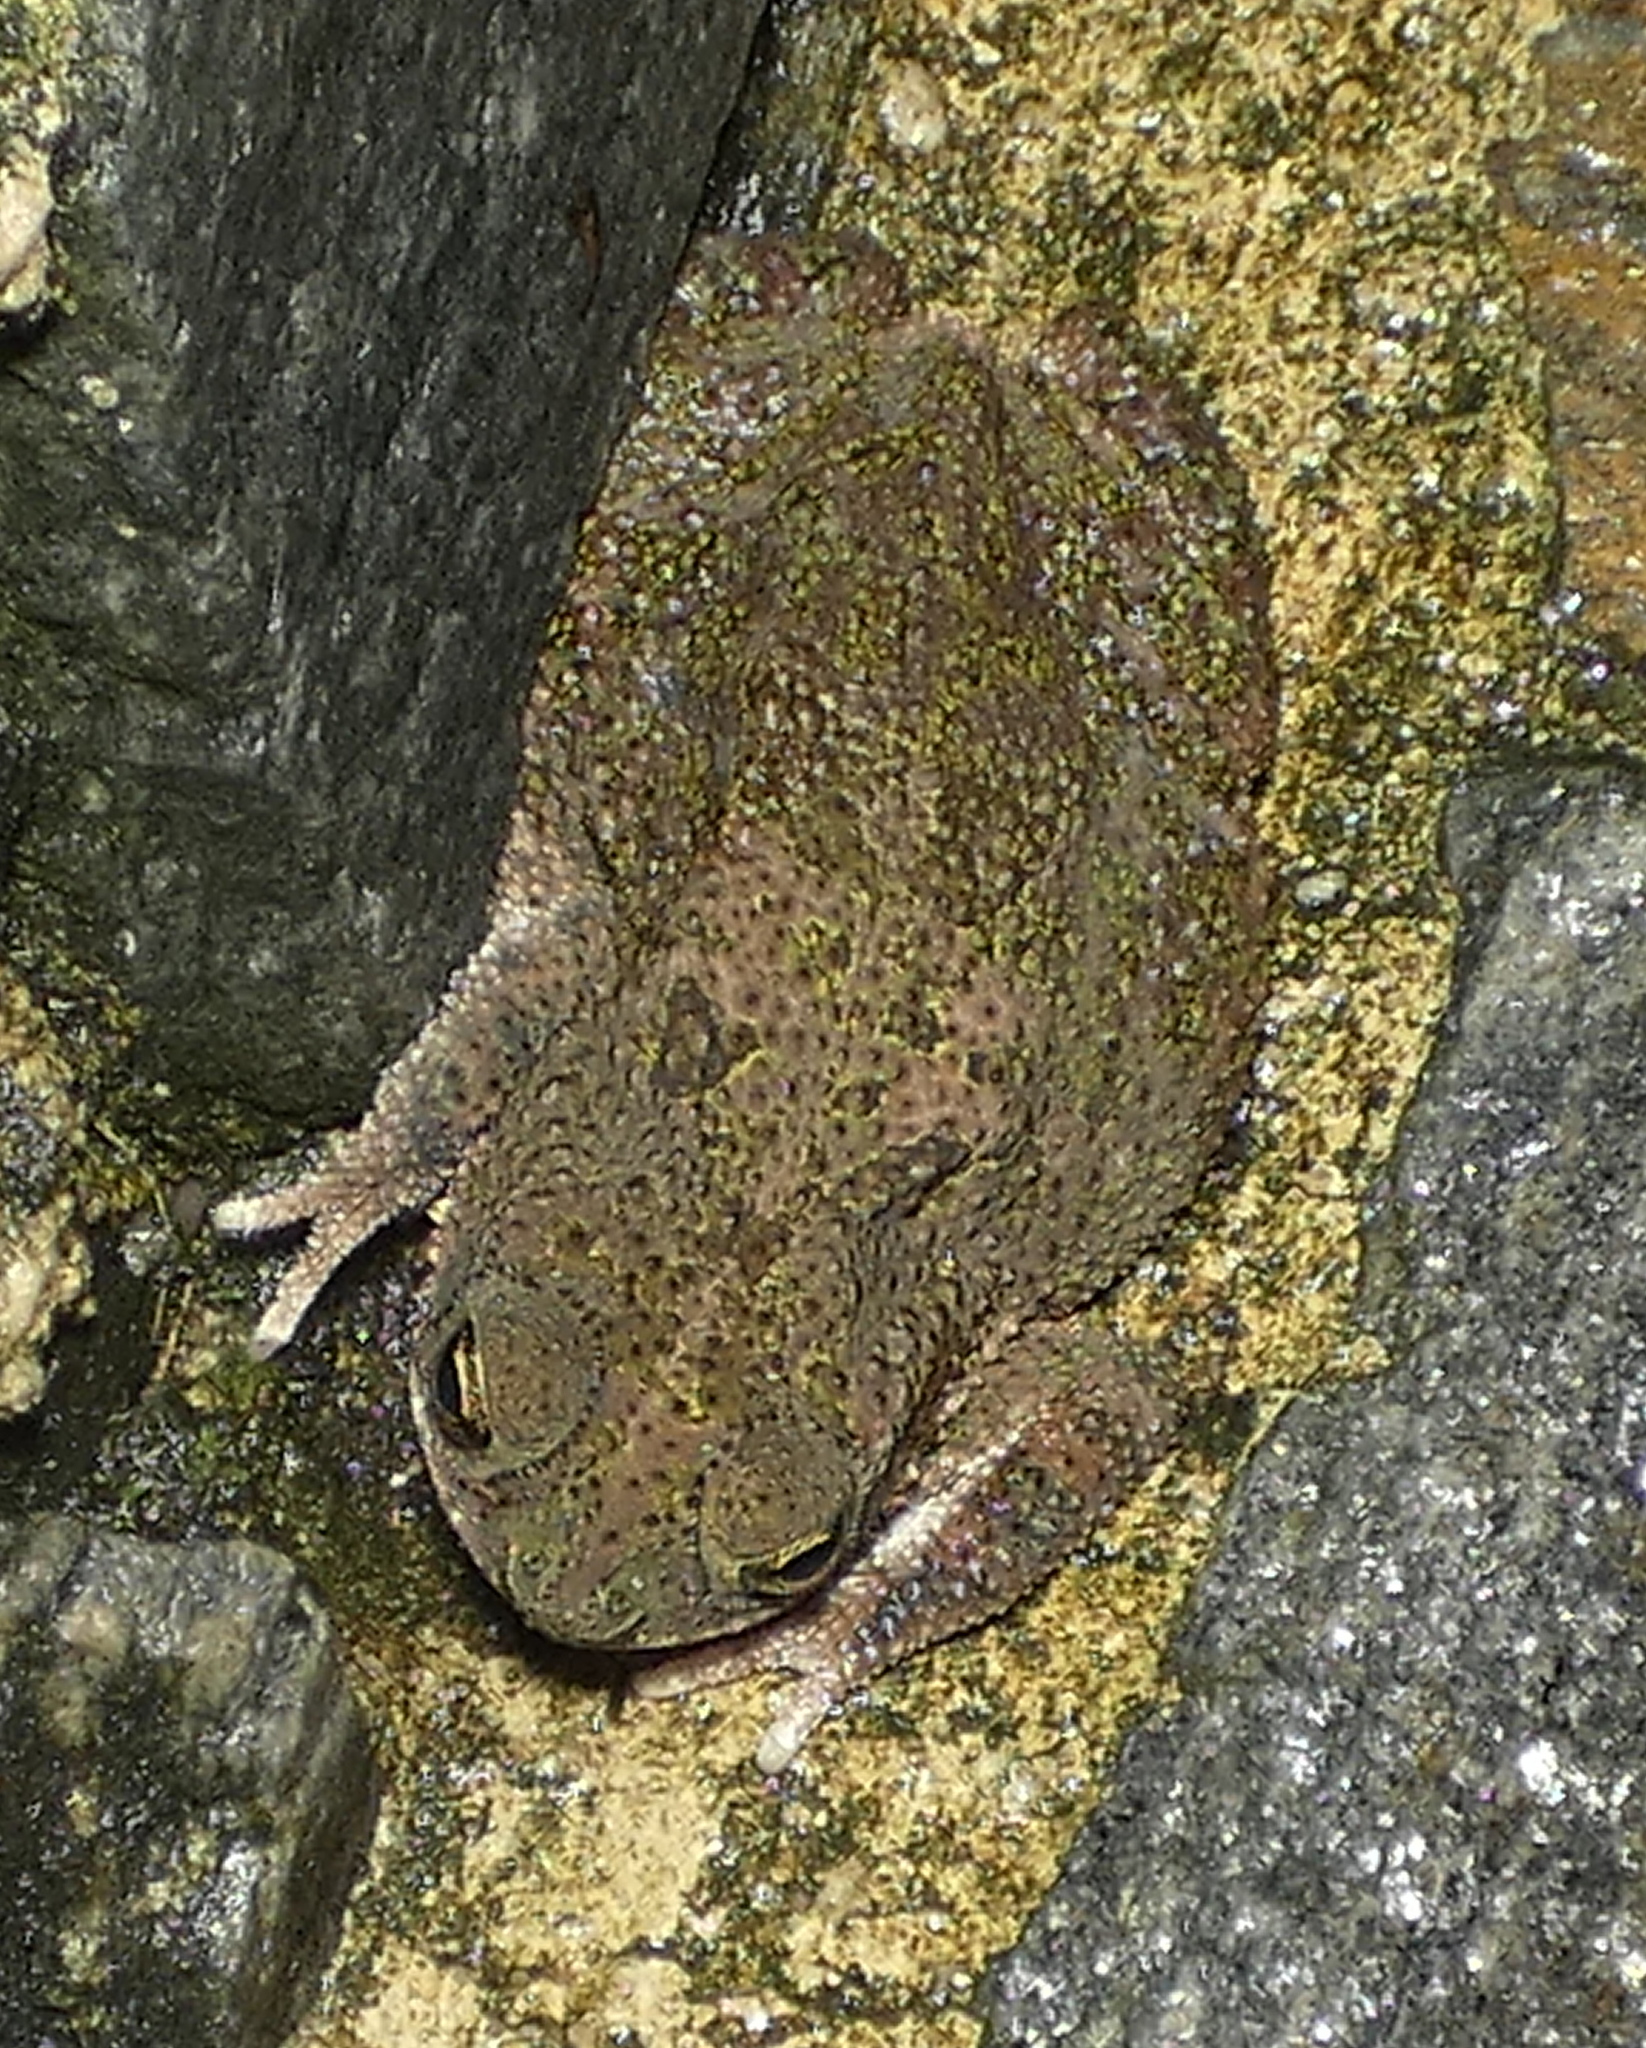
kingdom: Animalia
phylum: Chordata
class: Amphibia
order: Anura
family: Bufonidae
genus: Rhinella
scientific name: Rhinella granulosa
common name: Common lesser toad
